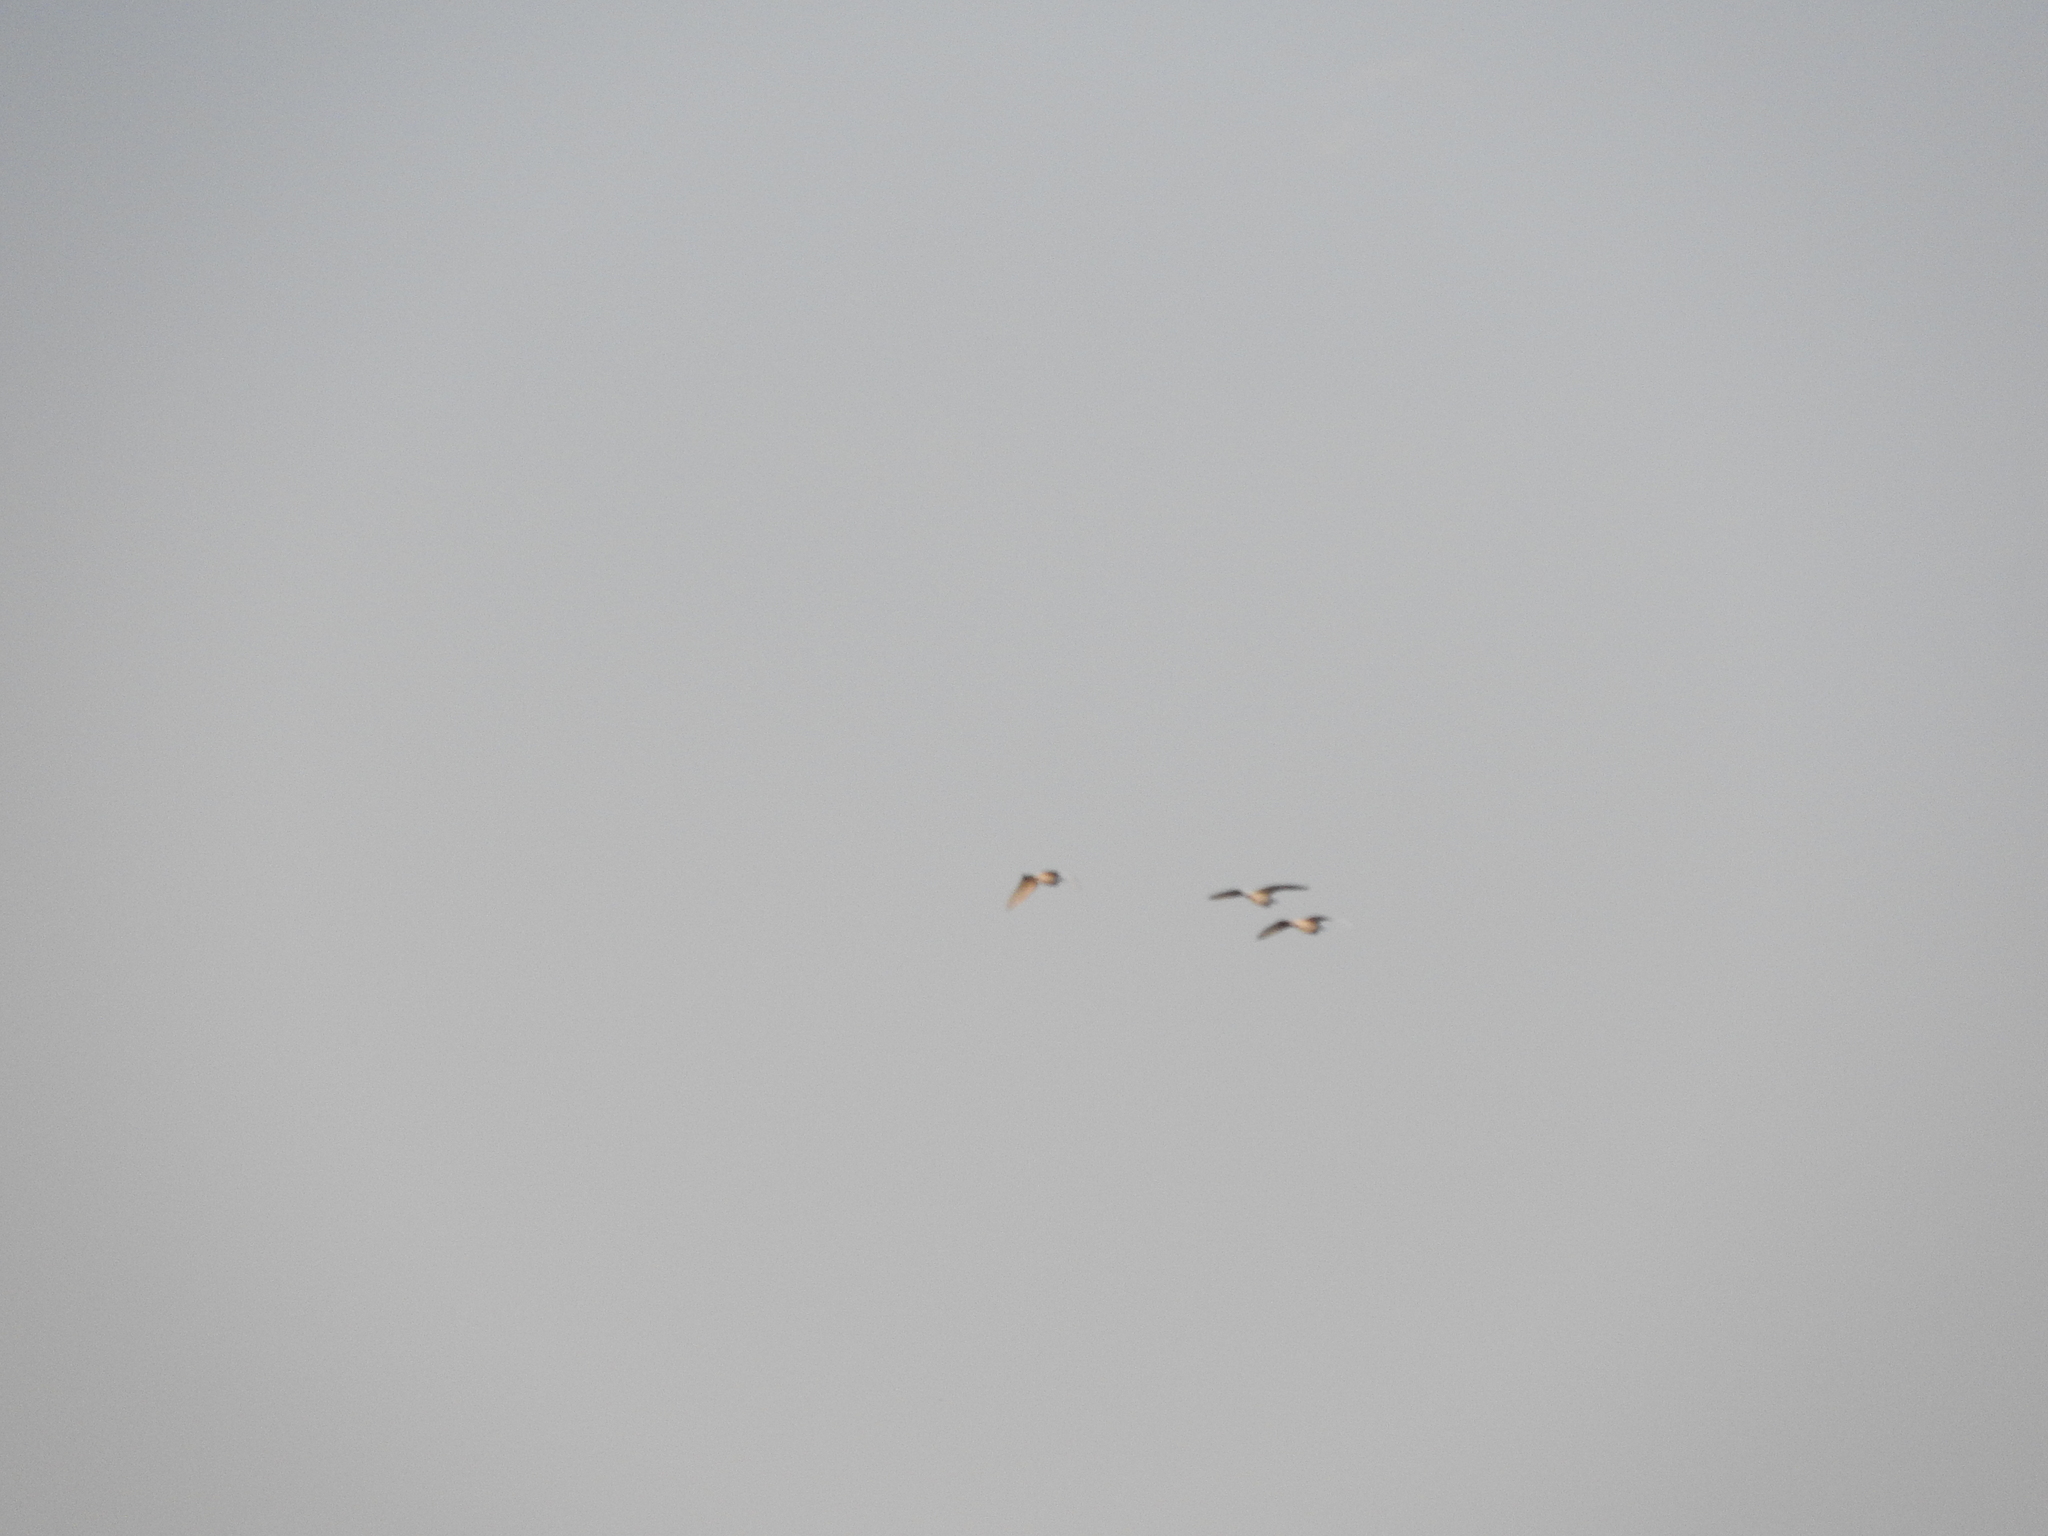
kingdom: Animalia
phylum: Chordata
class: Aves
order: Pelecaniformes
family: Ardeidae
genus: Bubulcus
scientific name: Bubulcus ibis
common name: Cattle egret
